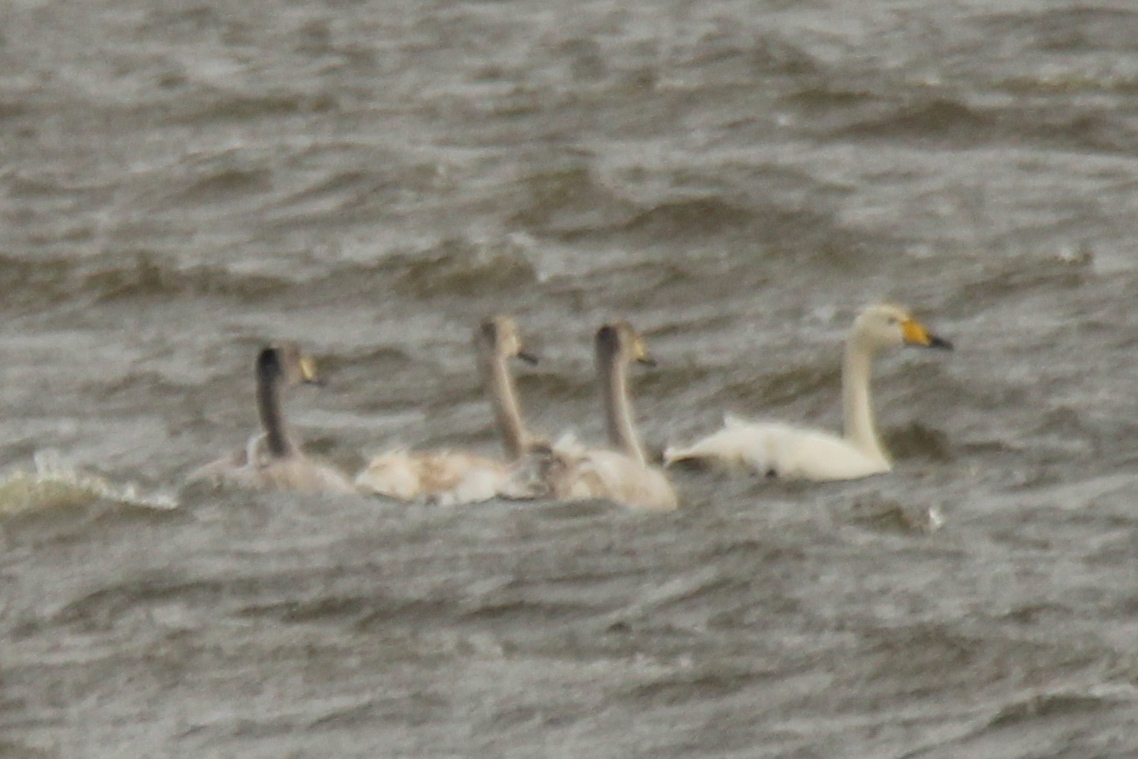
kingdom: Animalia
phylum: Chordata
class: Aves
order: Anseriformes
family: Anatidae
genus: Cygnus
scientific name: Cygnus cygnus
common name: Whooper swan
